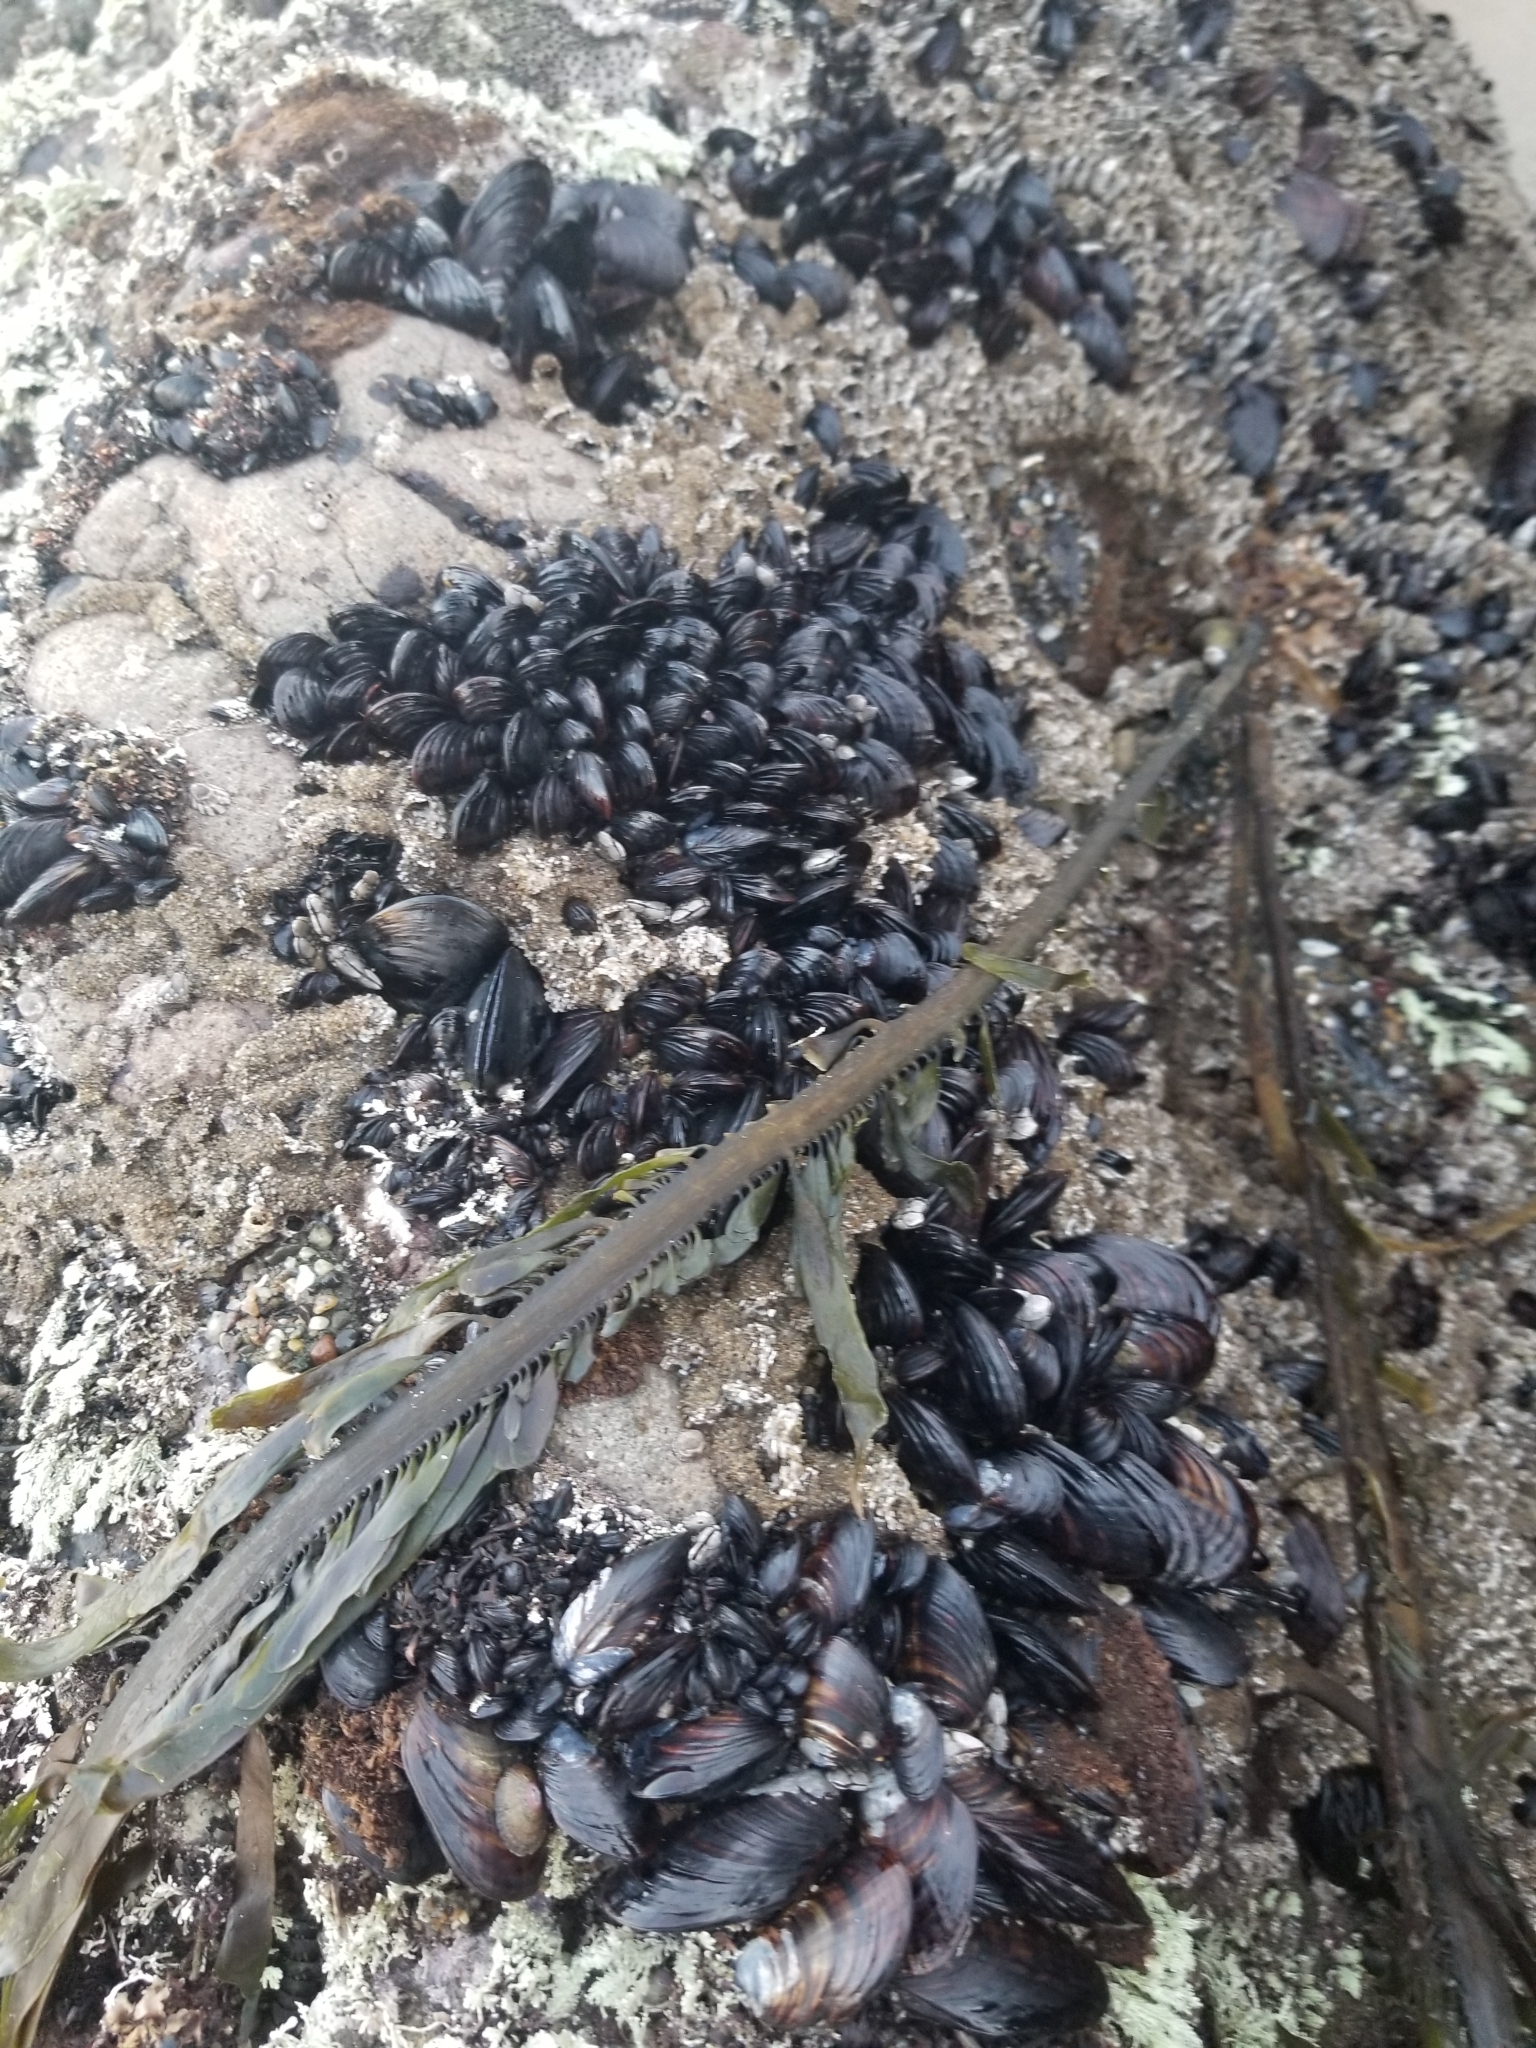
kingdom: Animalia
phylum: Mollusca
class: Bivalvia
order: Mytilida
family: Mytilidae
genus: Mytilus
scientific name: Mytilus californianus
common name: California mussel
